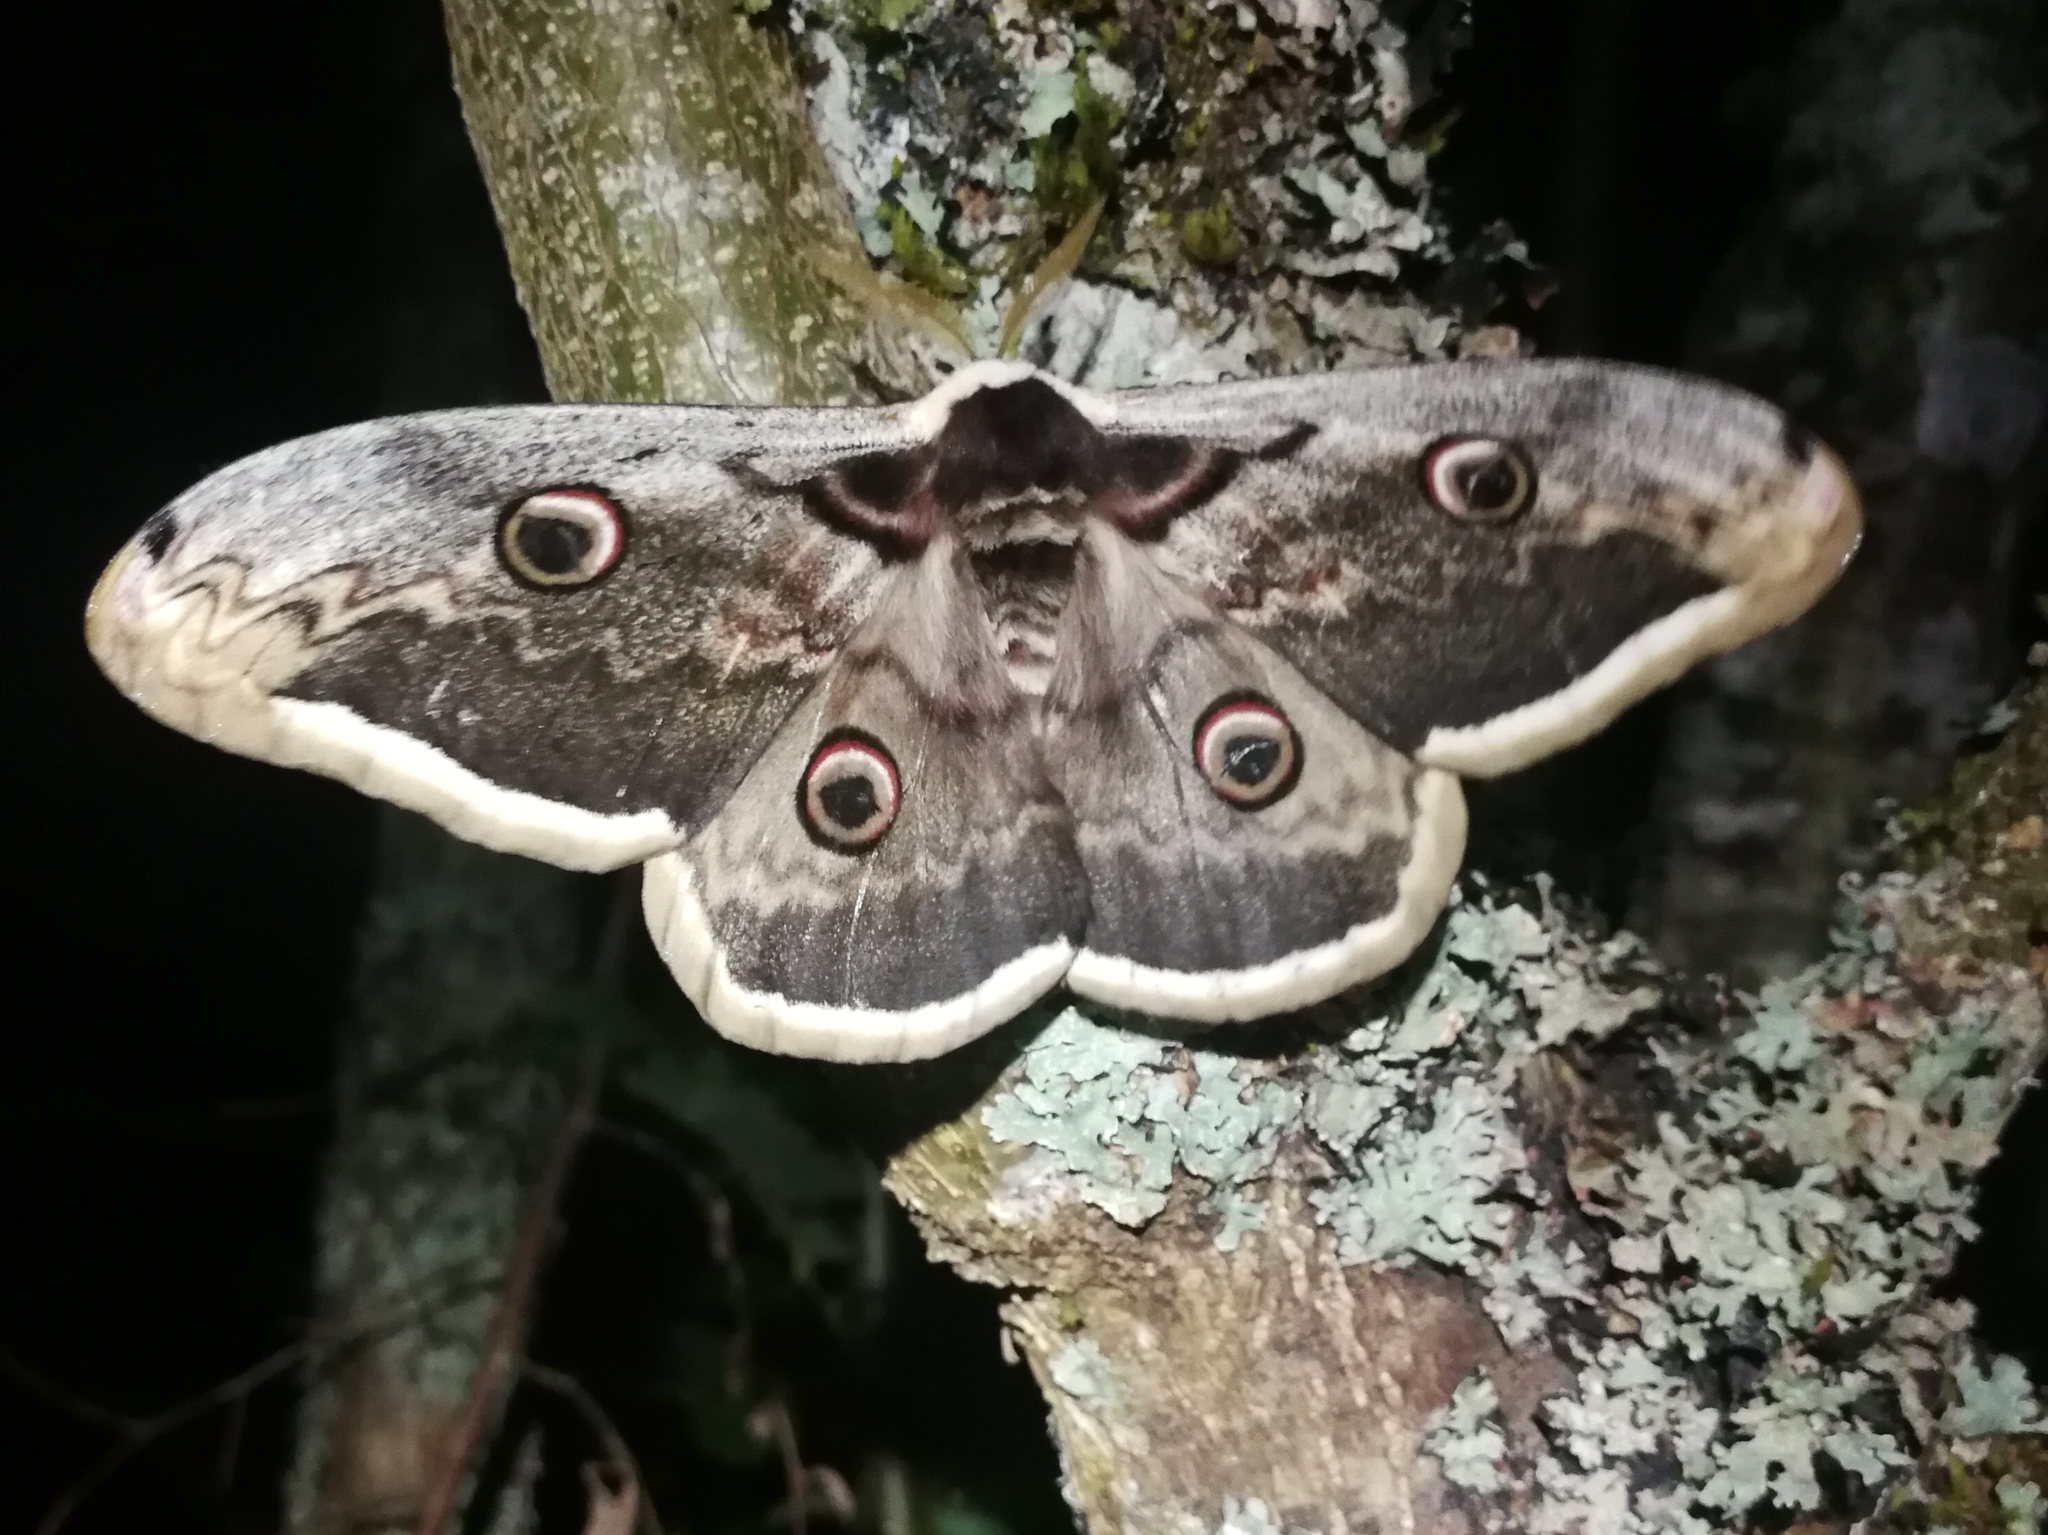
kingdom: Animalia
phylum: Arthropoda
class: Insecta
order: Lepidoptera
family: Saturniidae
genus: Saturnia
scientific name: Saturnia pyri
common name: Great peacock moth
